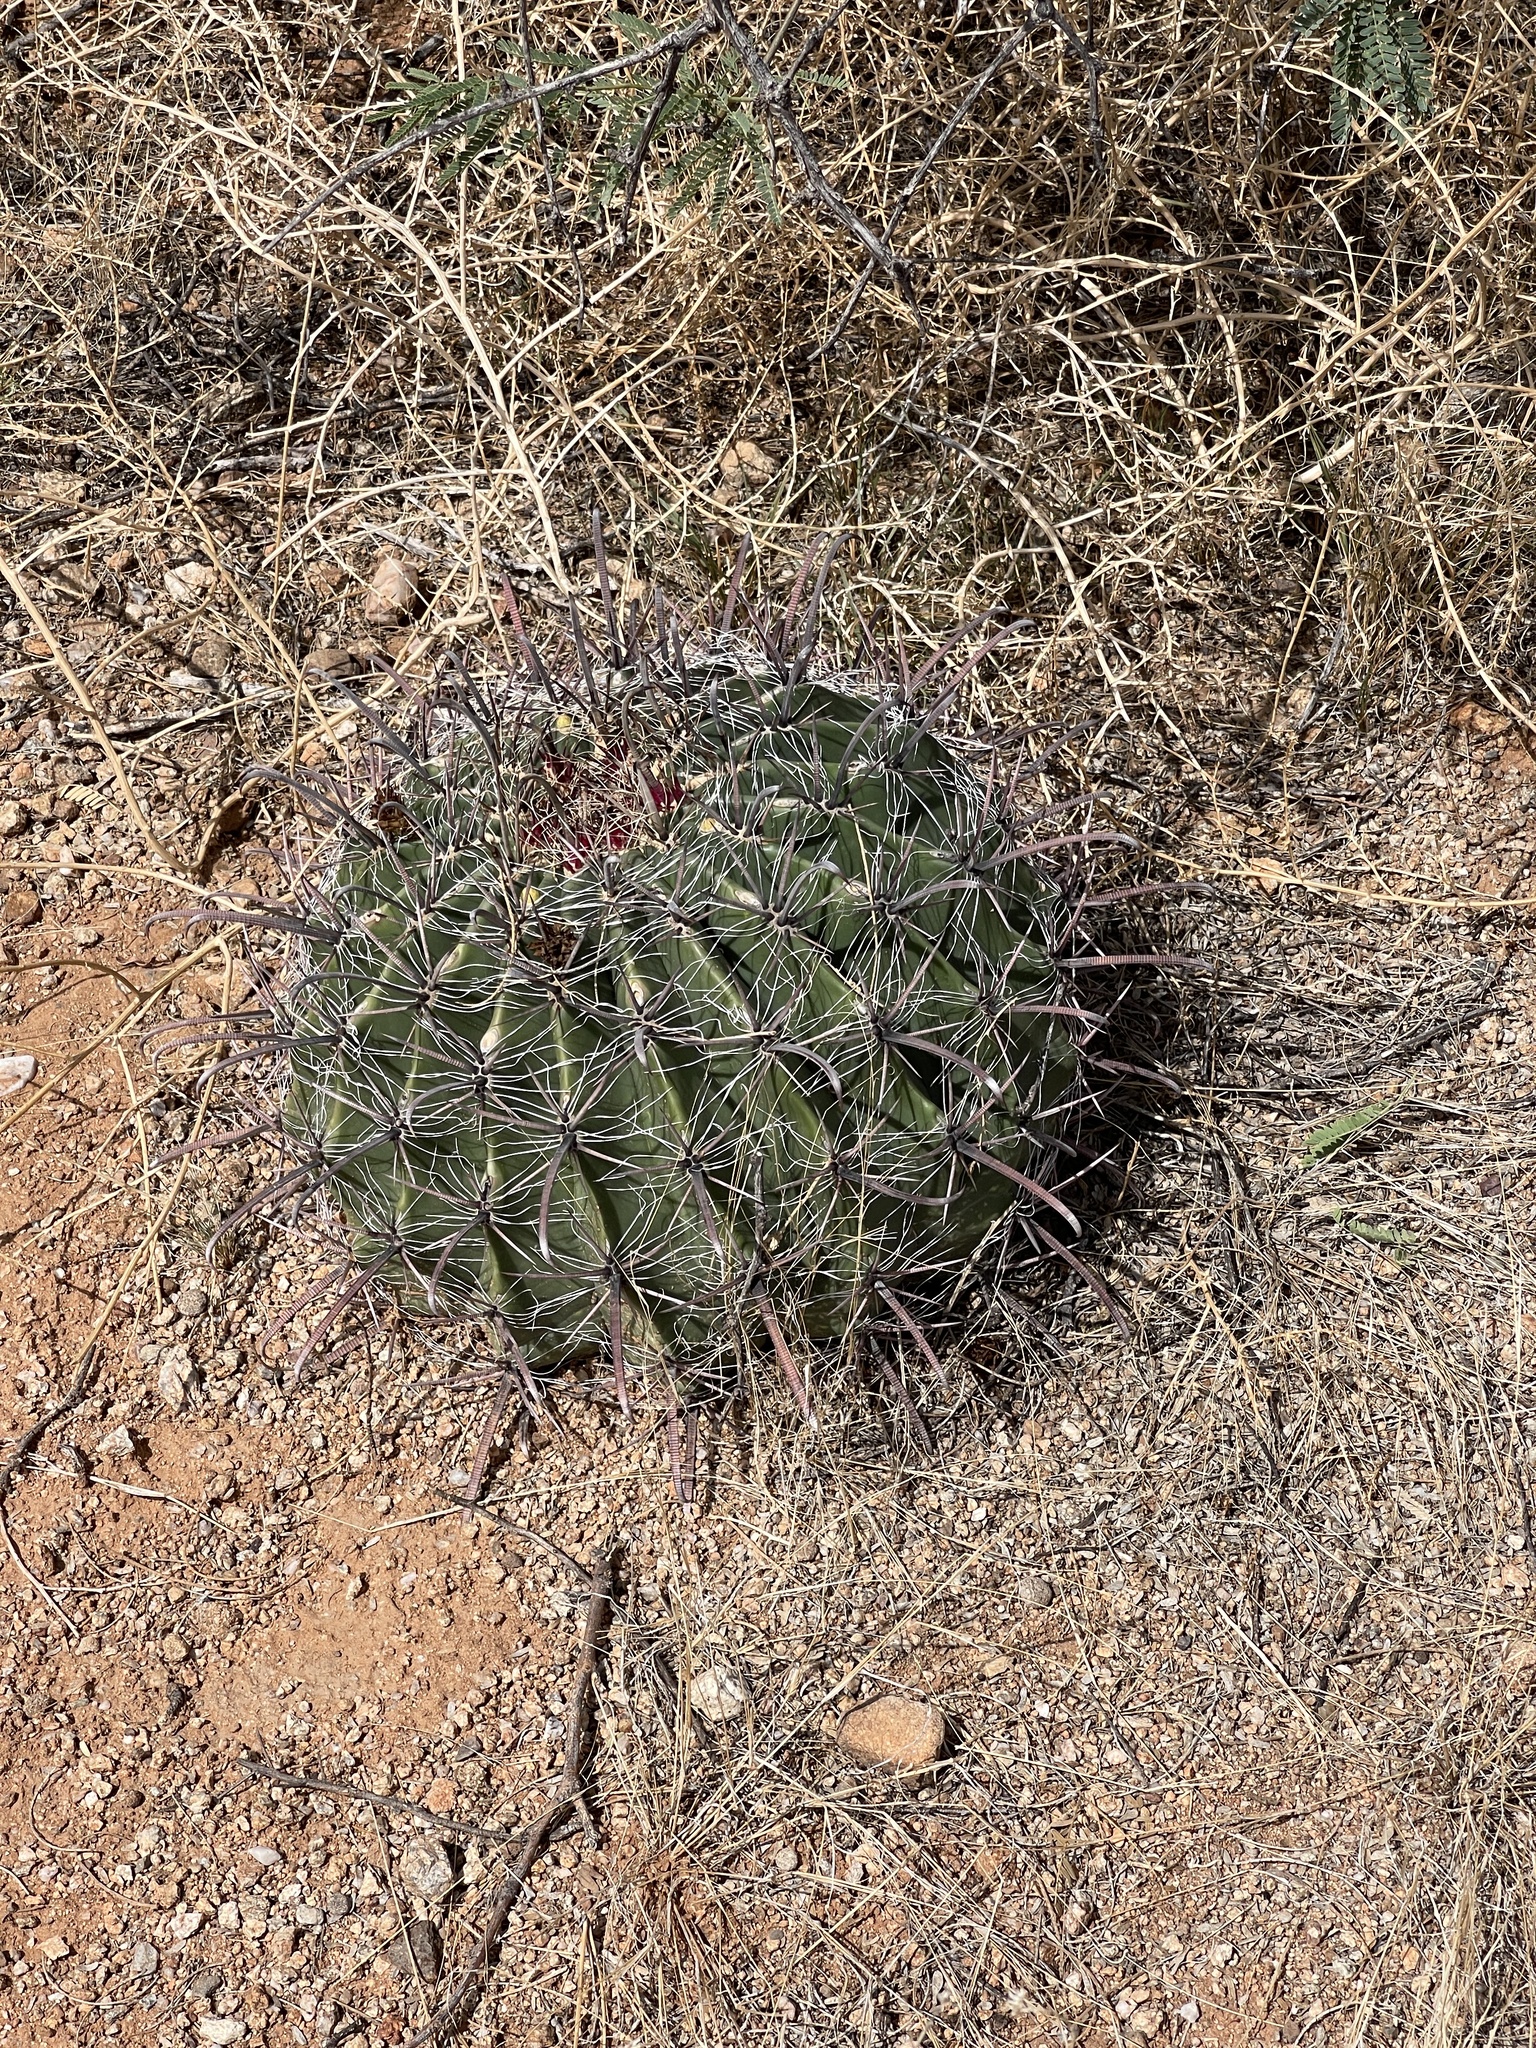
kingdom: Plantae
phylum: Tracheophyta
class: Magnoliopsida
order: Caryophyllales
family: Cactaceae
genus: Ferocactus
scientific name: Ferocactus wislizeni
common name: Candy barrel cactus
